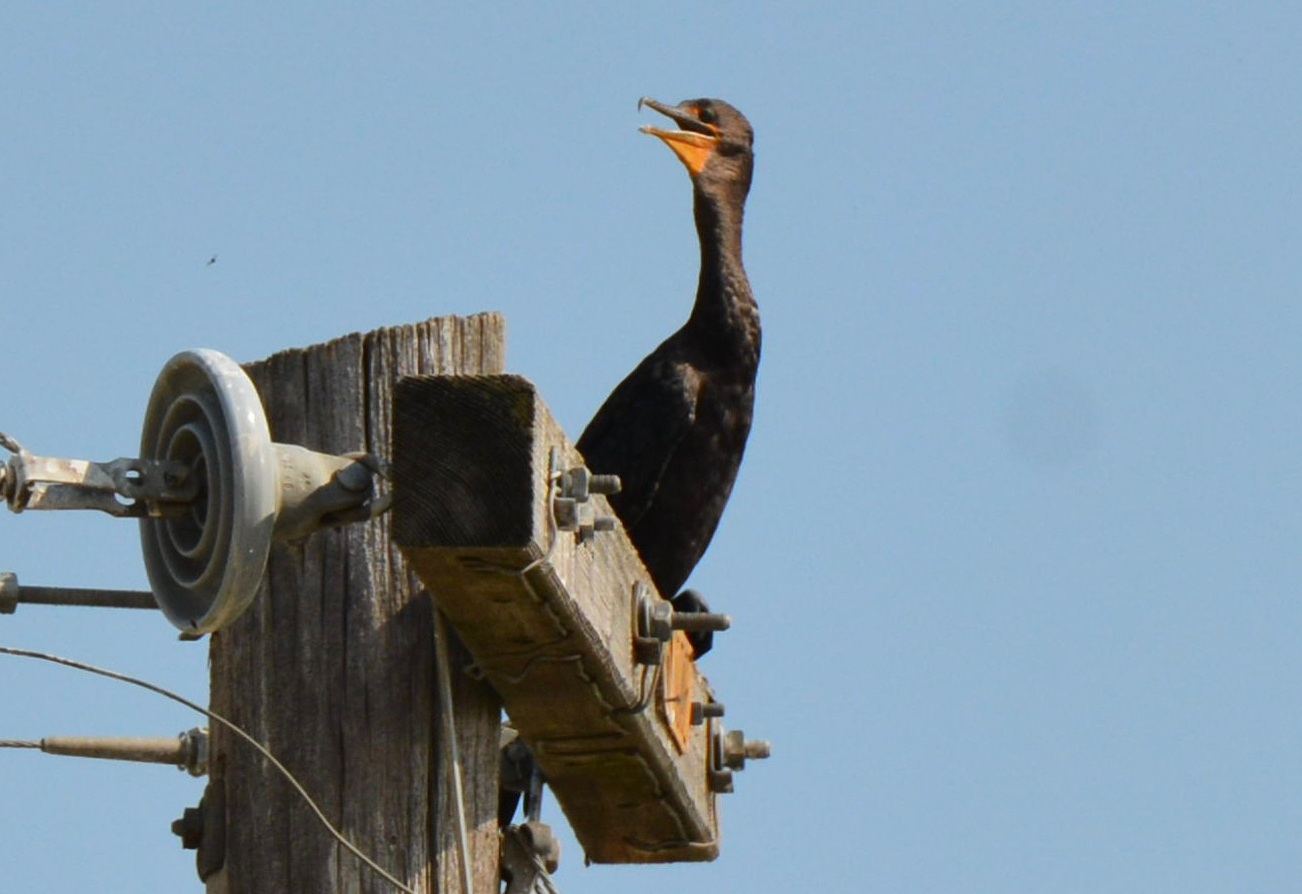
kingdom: Animalia
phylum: Chordata
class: Aves
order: Suliformes
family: Phalacrocoracidae
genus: Phalacrocorax
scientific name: Phalacrocorax auritus
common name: Double-crested cormorant
